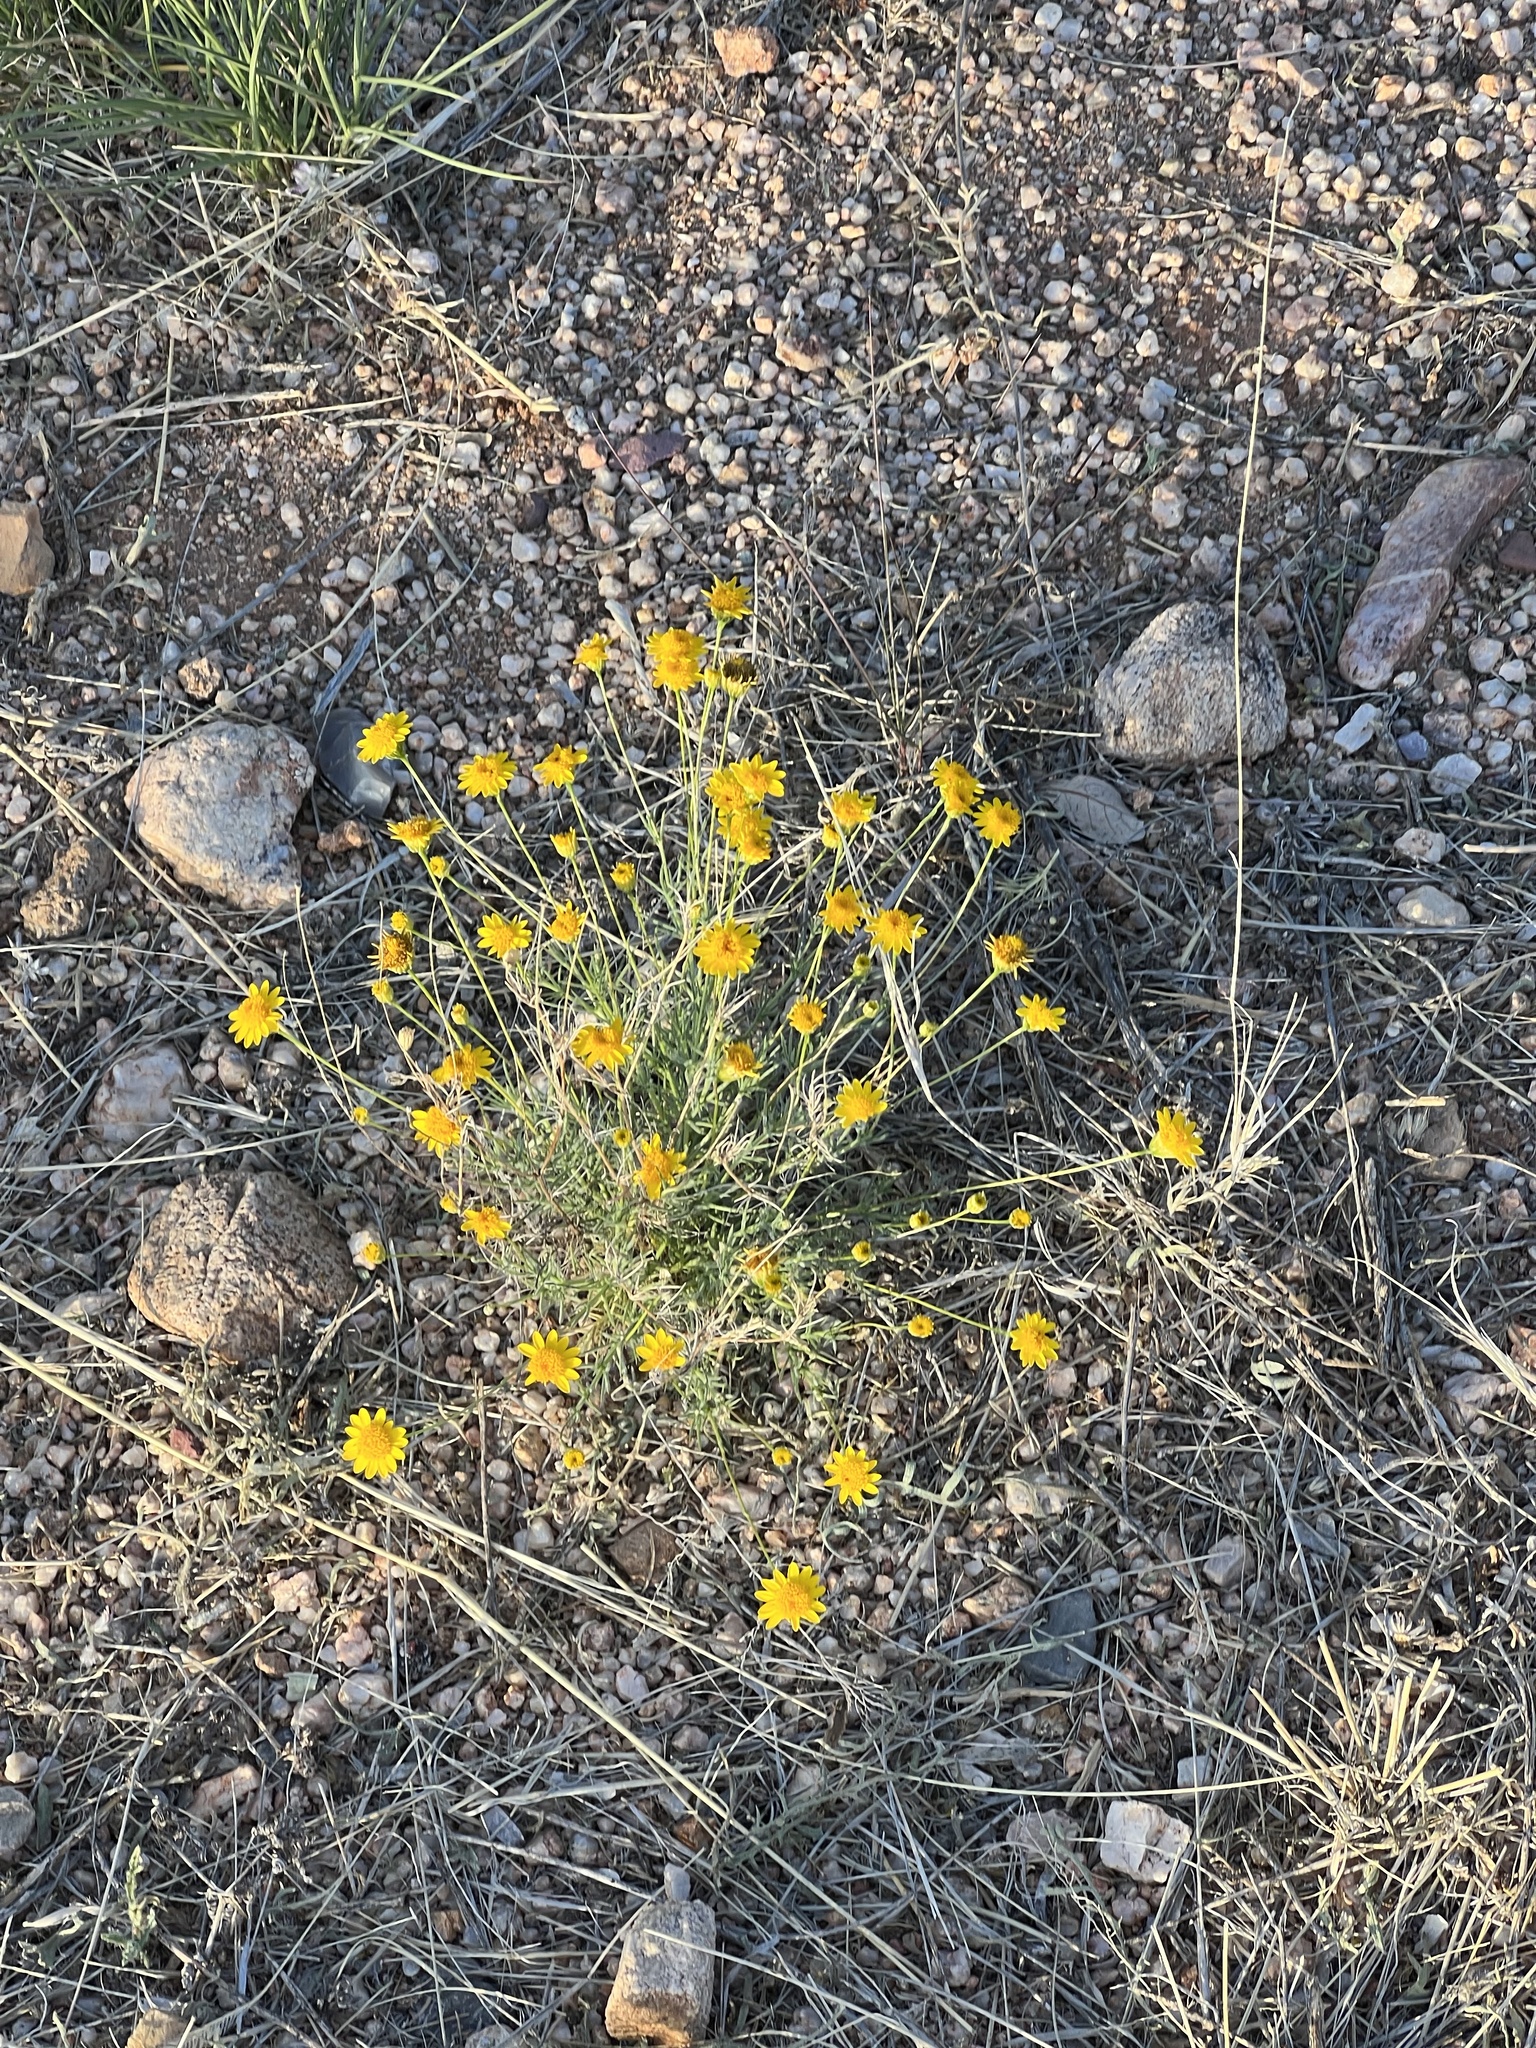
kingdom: Plantae
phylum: Tracheophyta
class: Magnoliopsida
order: Asterales
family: Asteraceae
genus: Thymophylla
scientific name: Thymophylla pentachaeta
